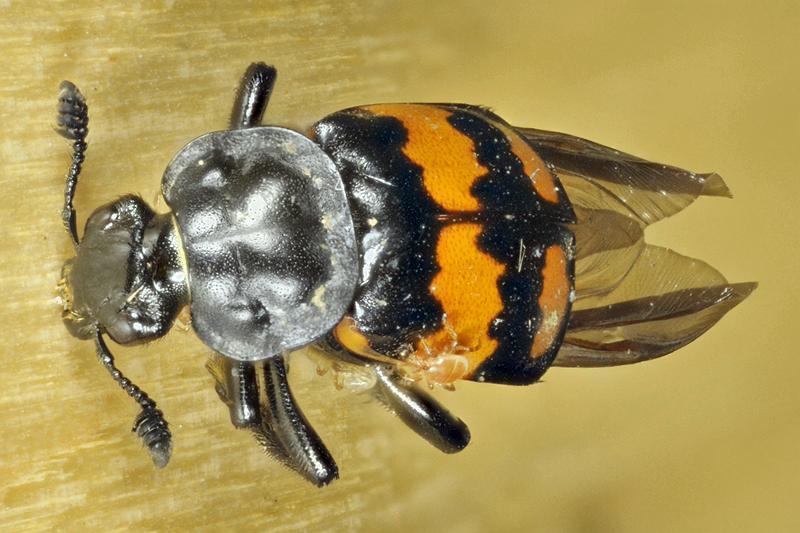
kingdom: Animalia
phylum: Arthropoda
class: Insecta
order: Coleoptera
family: Staphylinidae
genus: Nicrophorus
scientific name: Nicrophorus hebes
